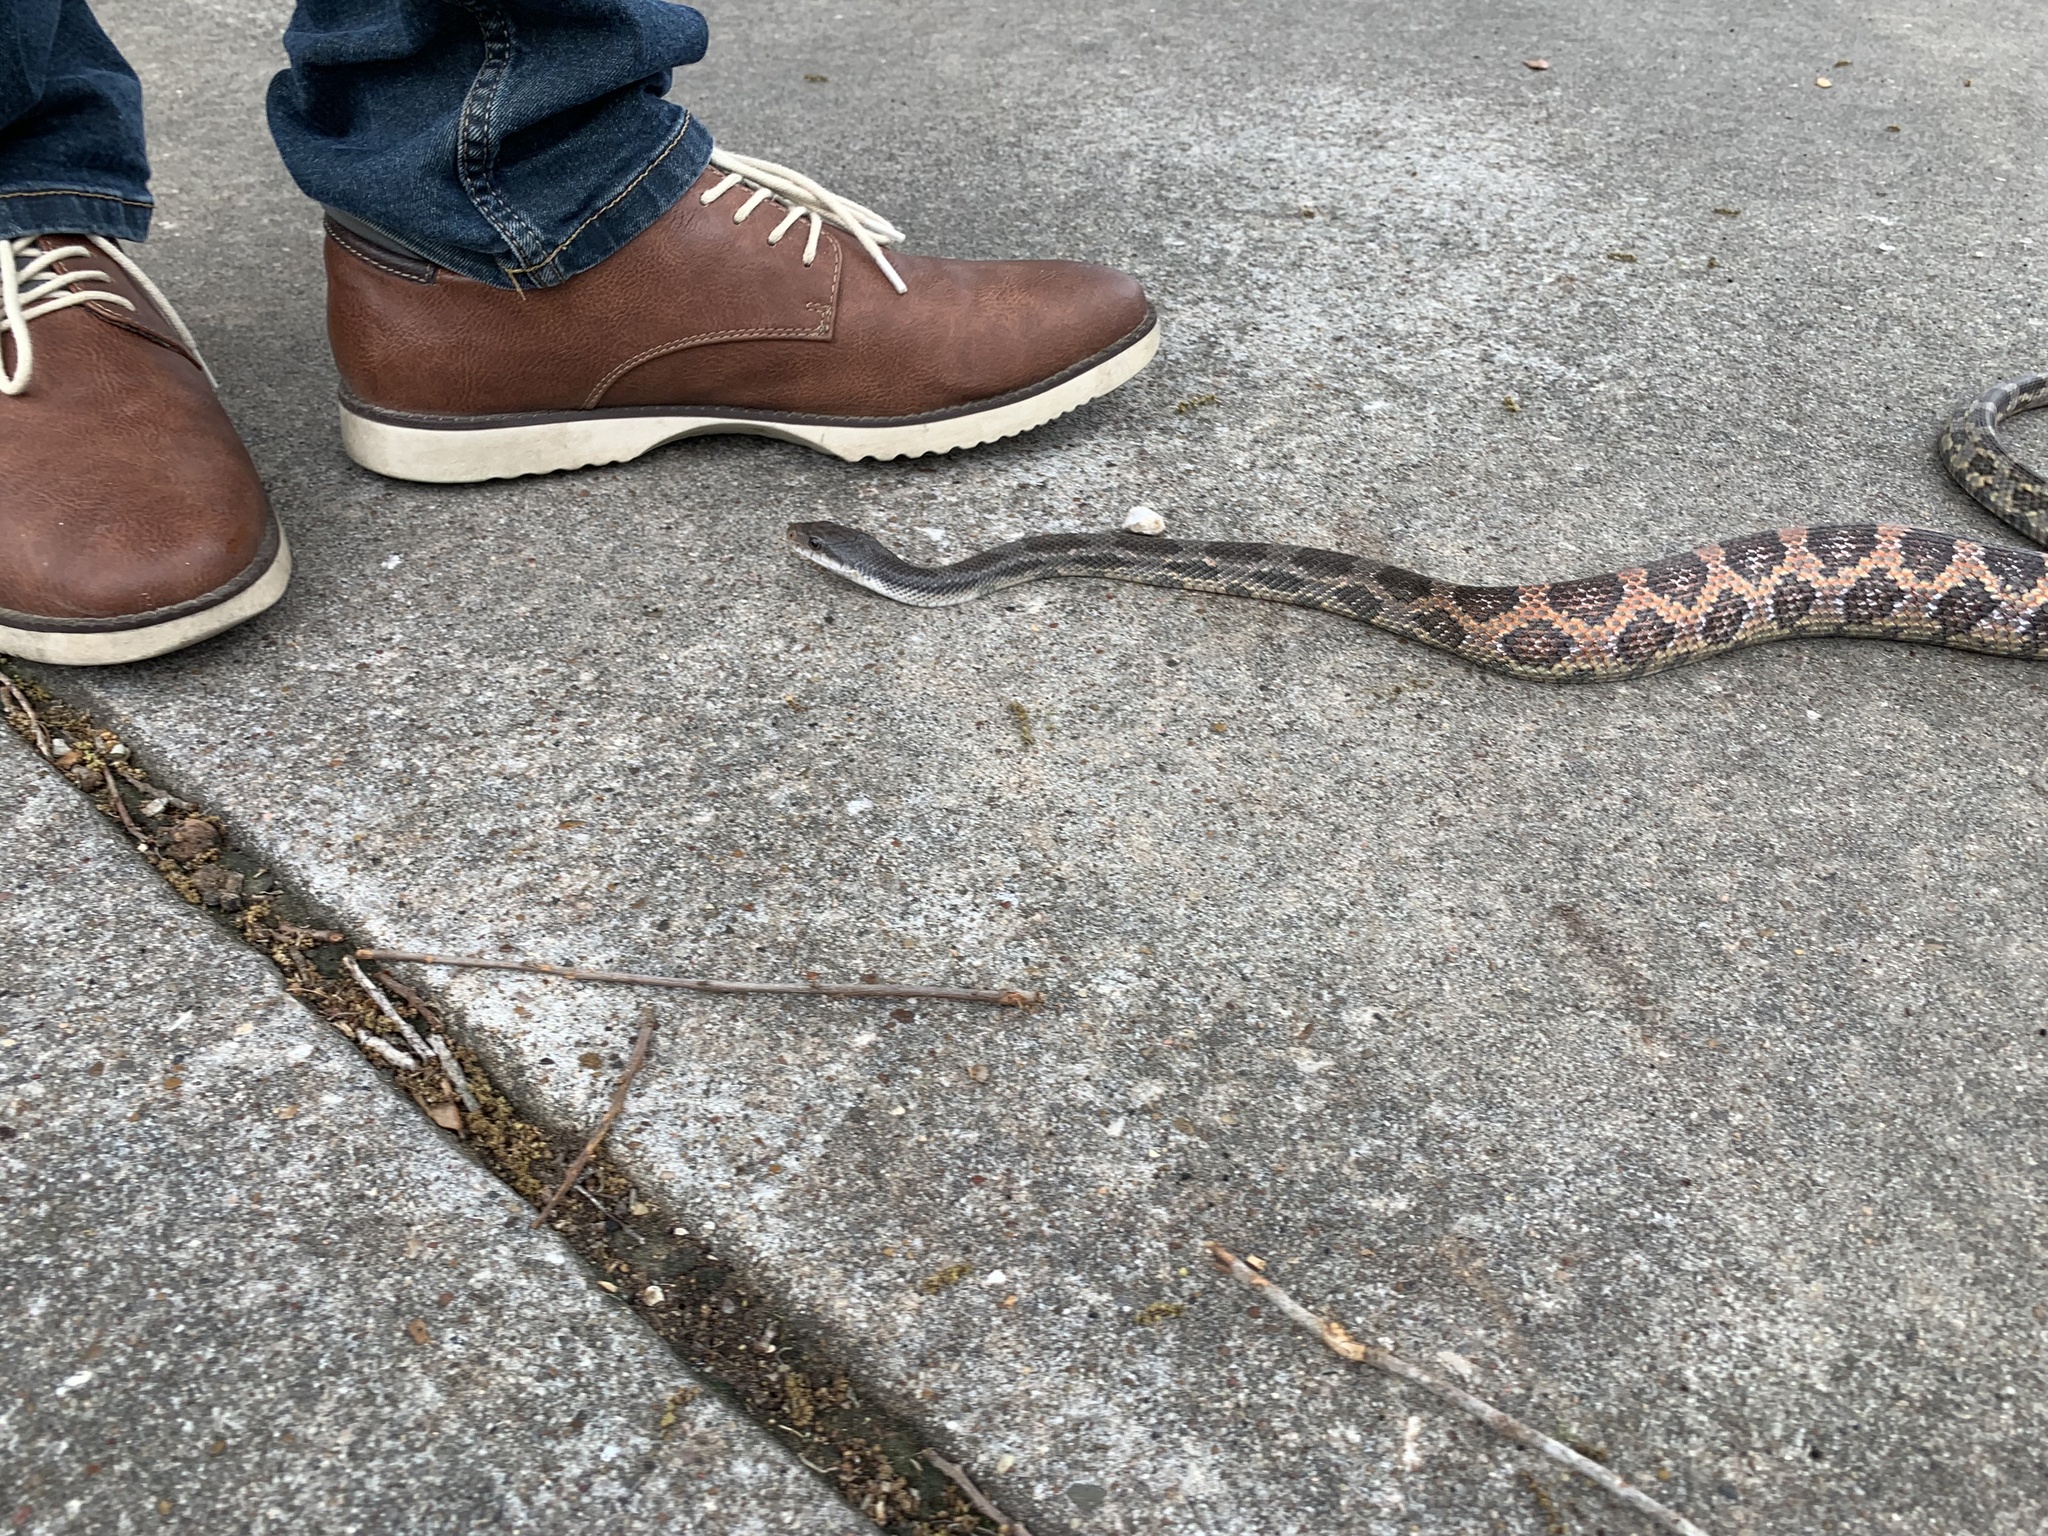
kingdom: Animalia
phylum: Chordata
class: Squamata
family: Colubridae
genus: Pantherophis
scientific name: Pantherophis obsoletus
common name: Black rat snake
